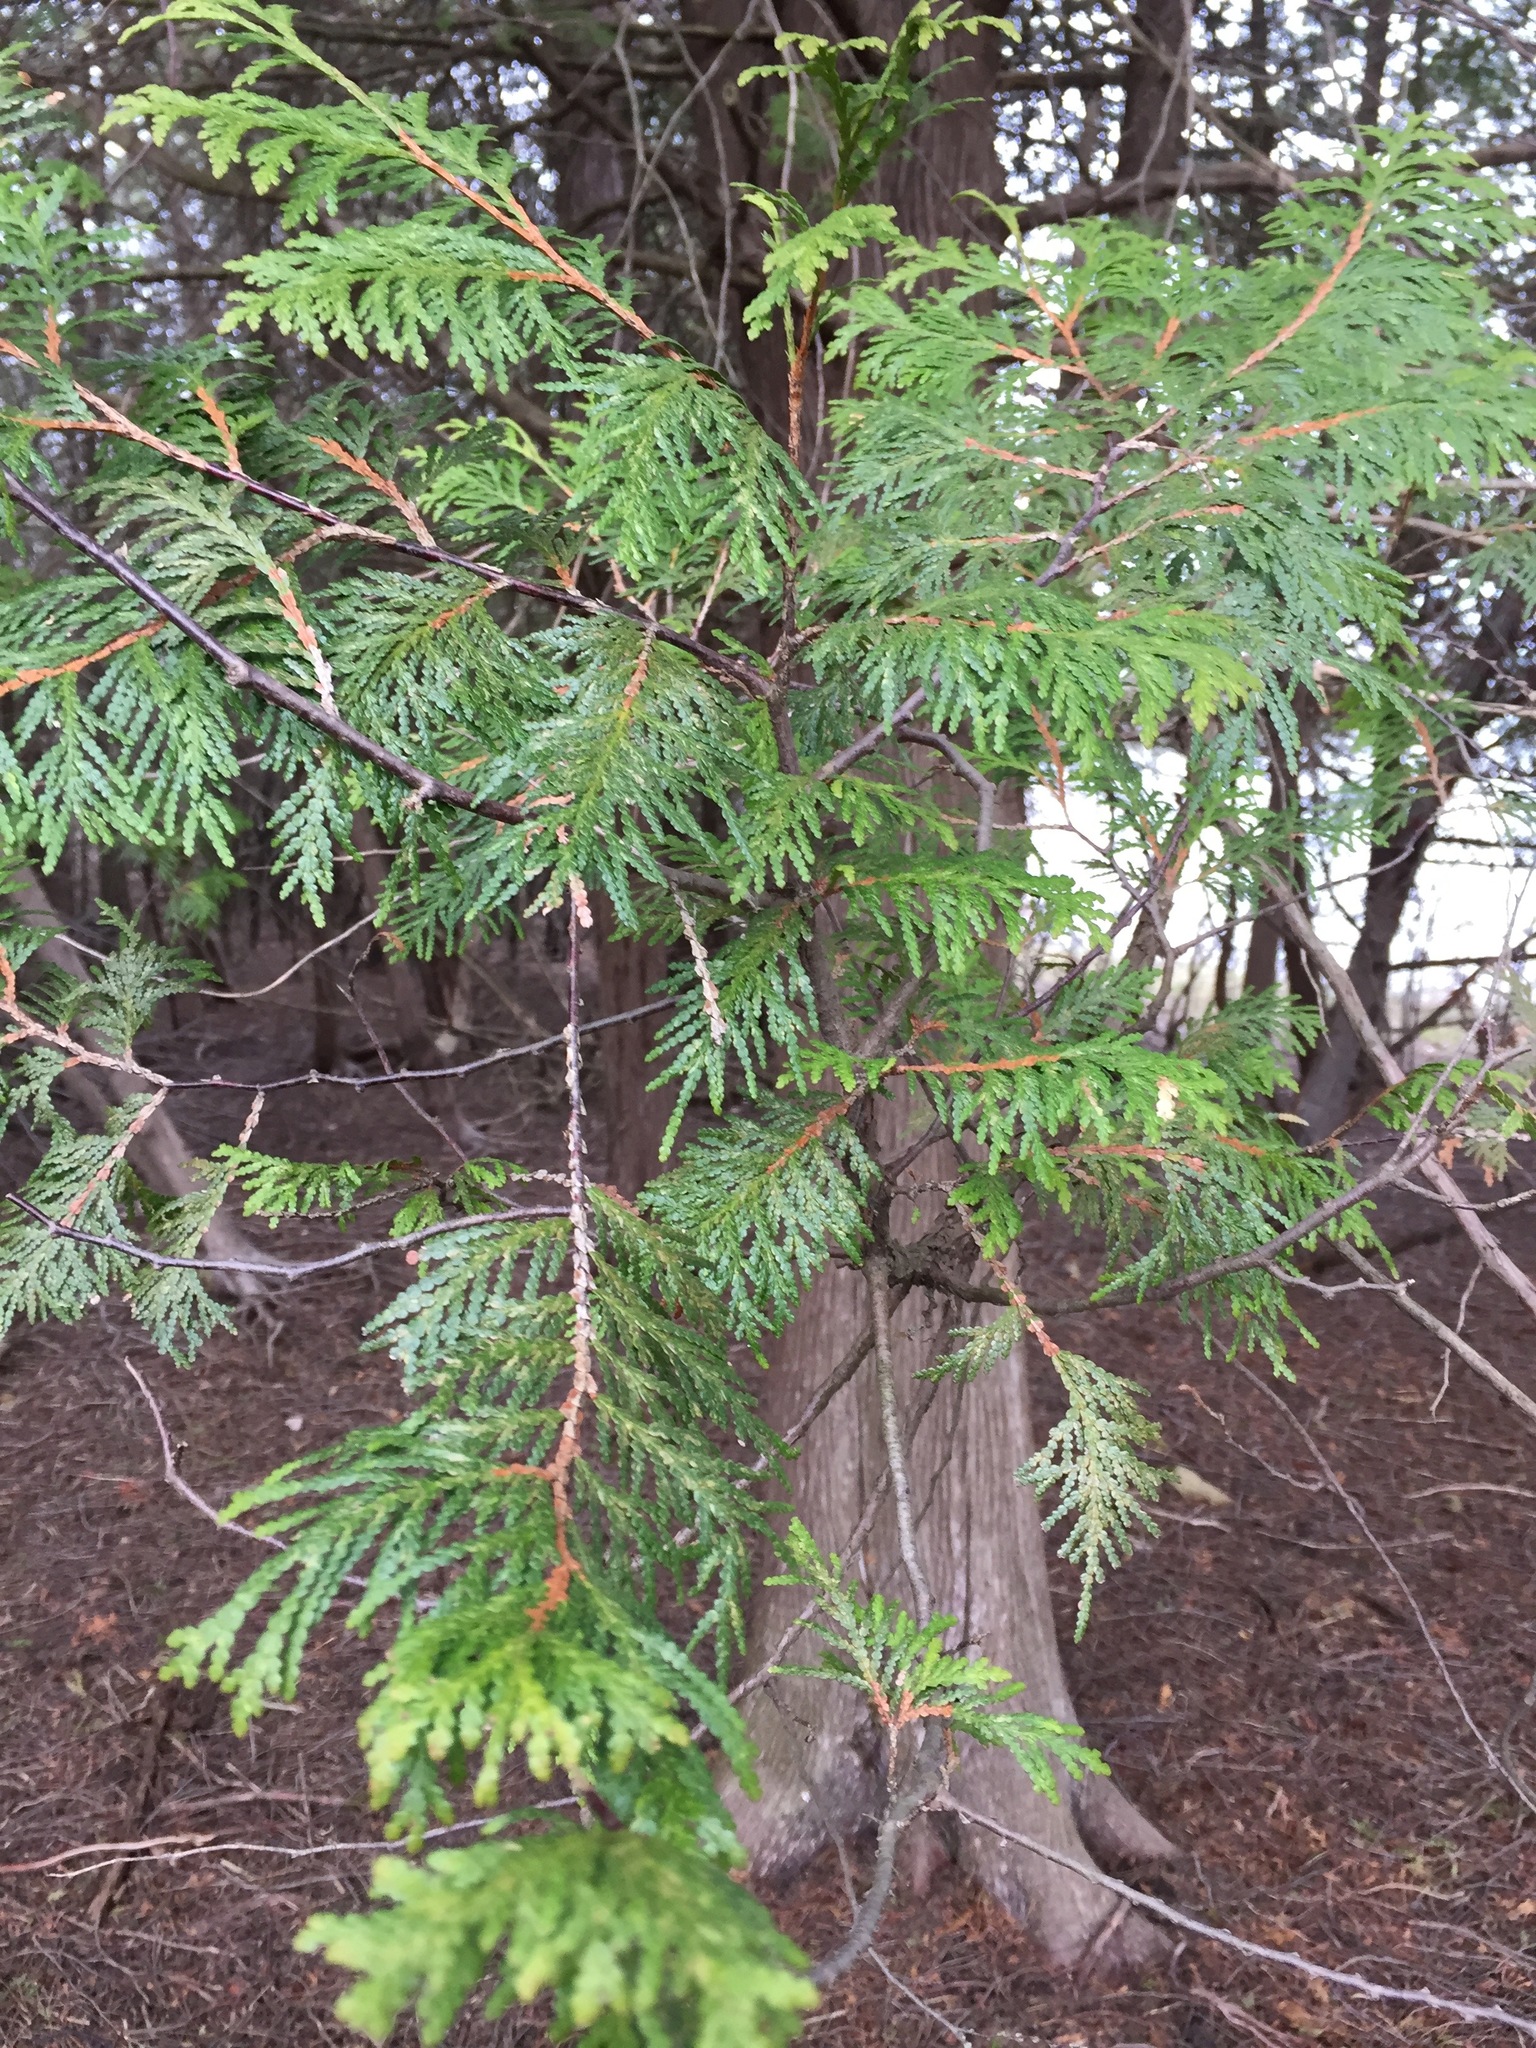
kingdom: Plantae
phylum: Tracheophyta
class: Pinopsida
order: Pinales
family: Cupressaceae
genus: Thuja
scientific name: Thuja occidentalis
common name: Northern white-cedar
